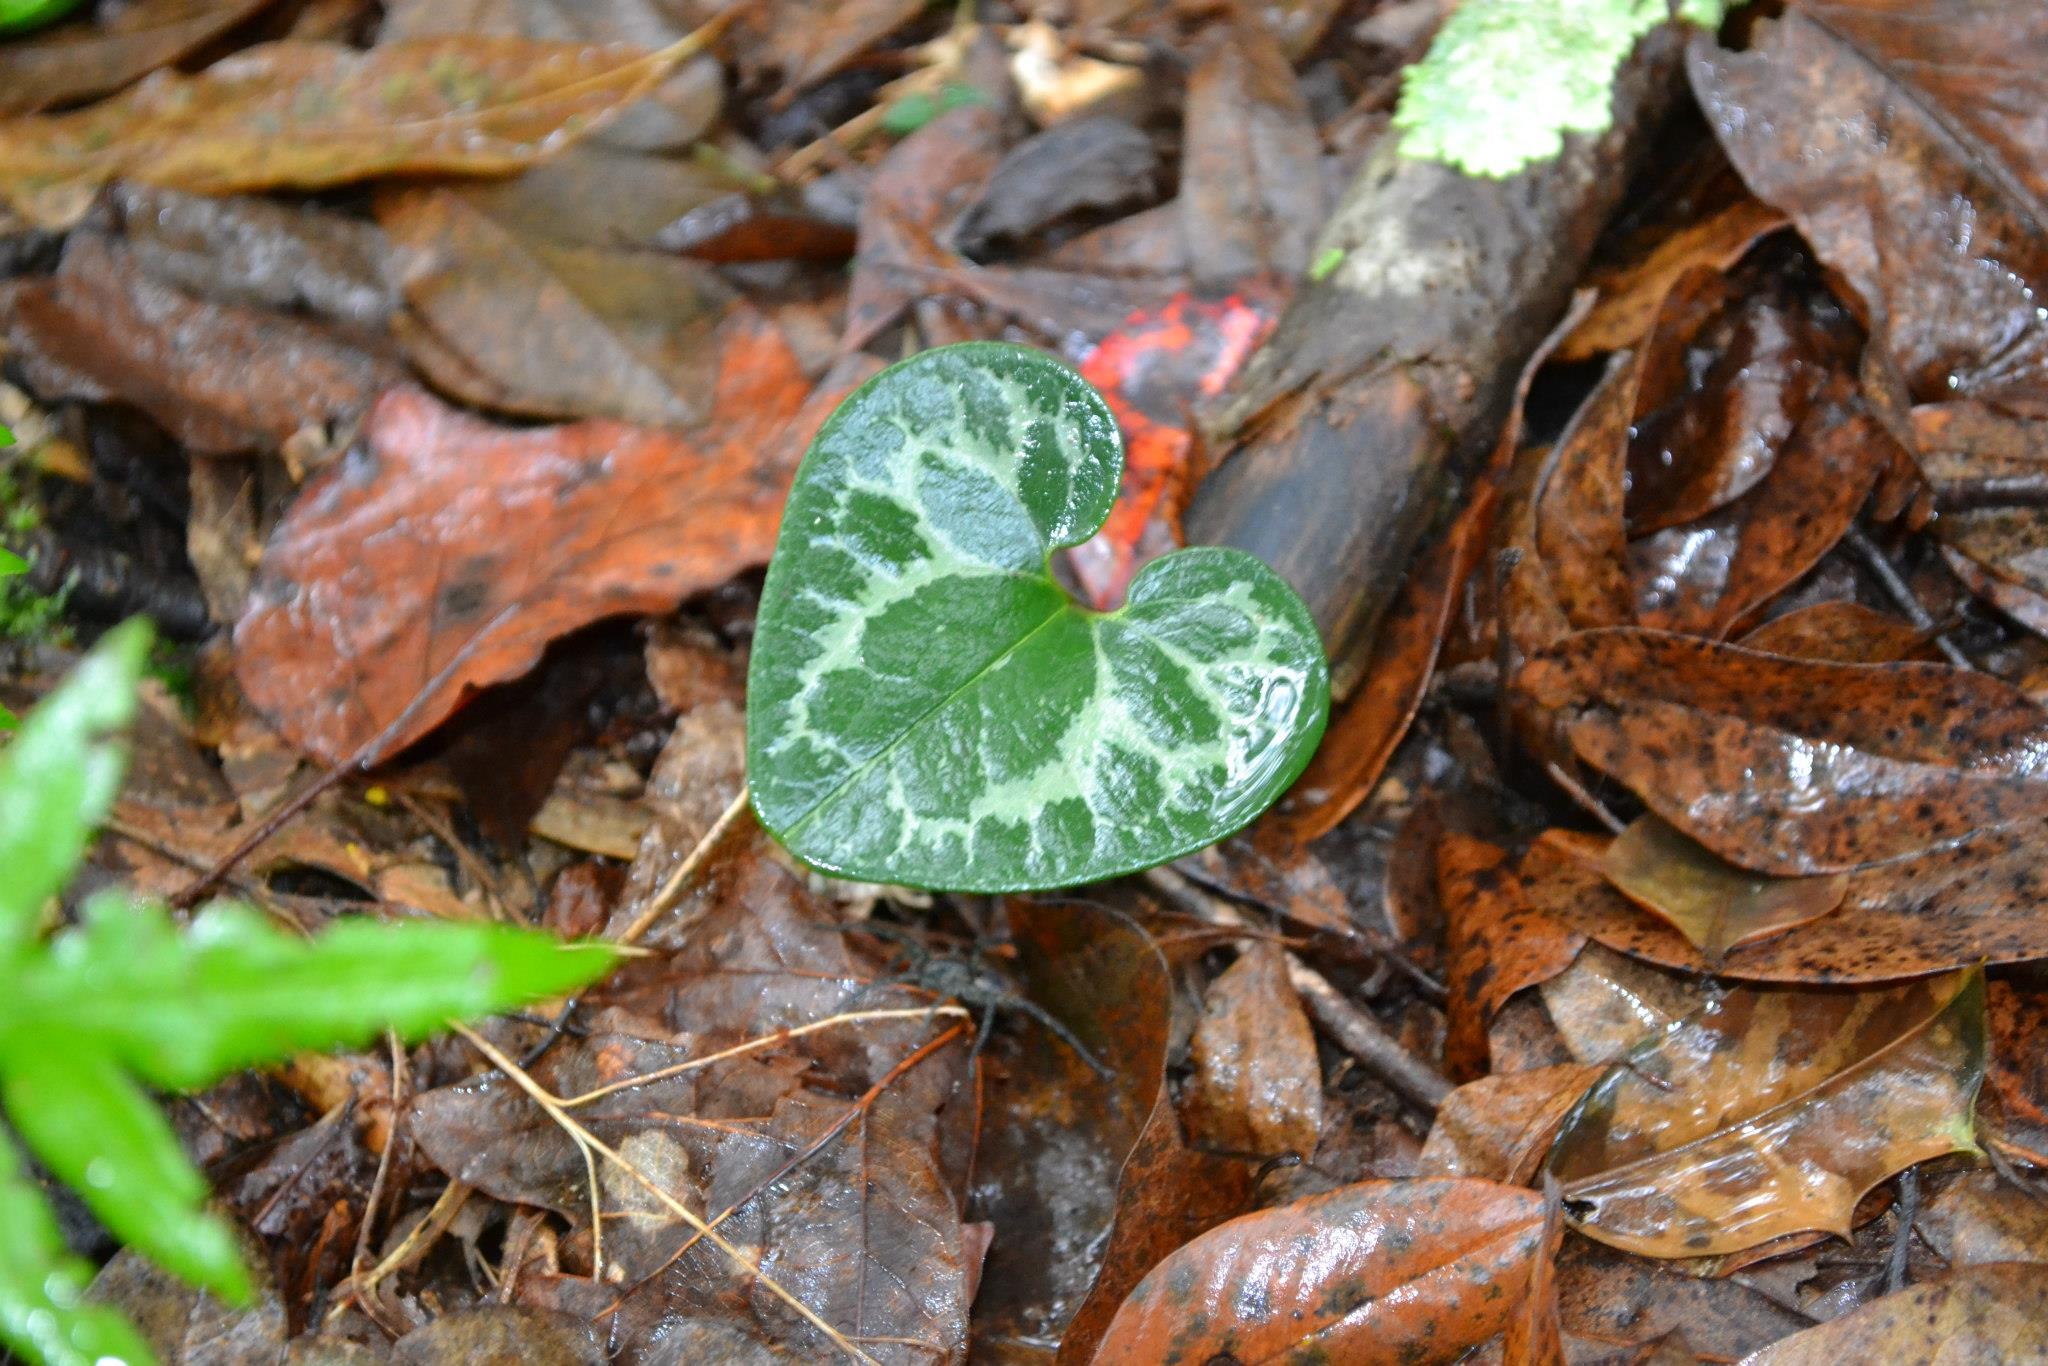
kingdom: Plantae
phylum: Tracheophyta
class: Magnoliopsida
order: Piperales
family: Aristolochiaceae
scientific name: Aristolochiaceae
